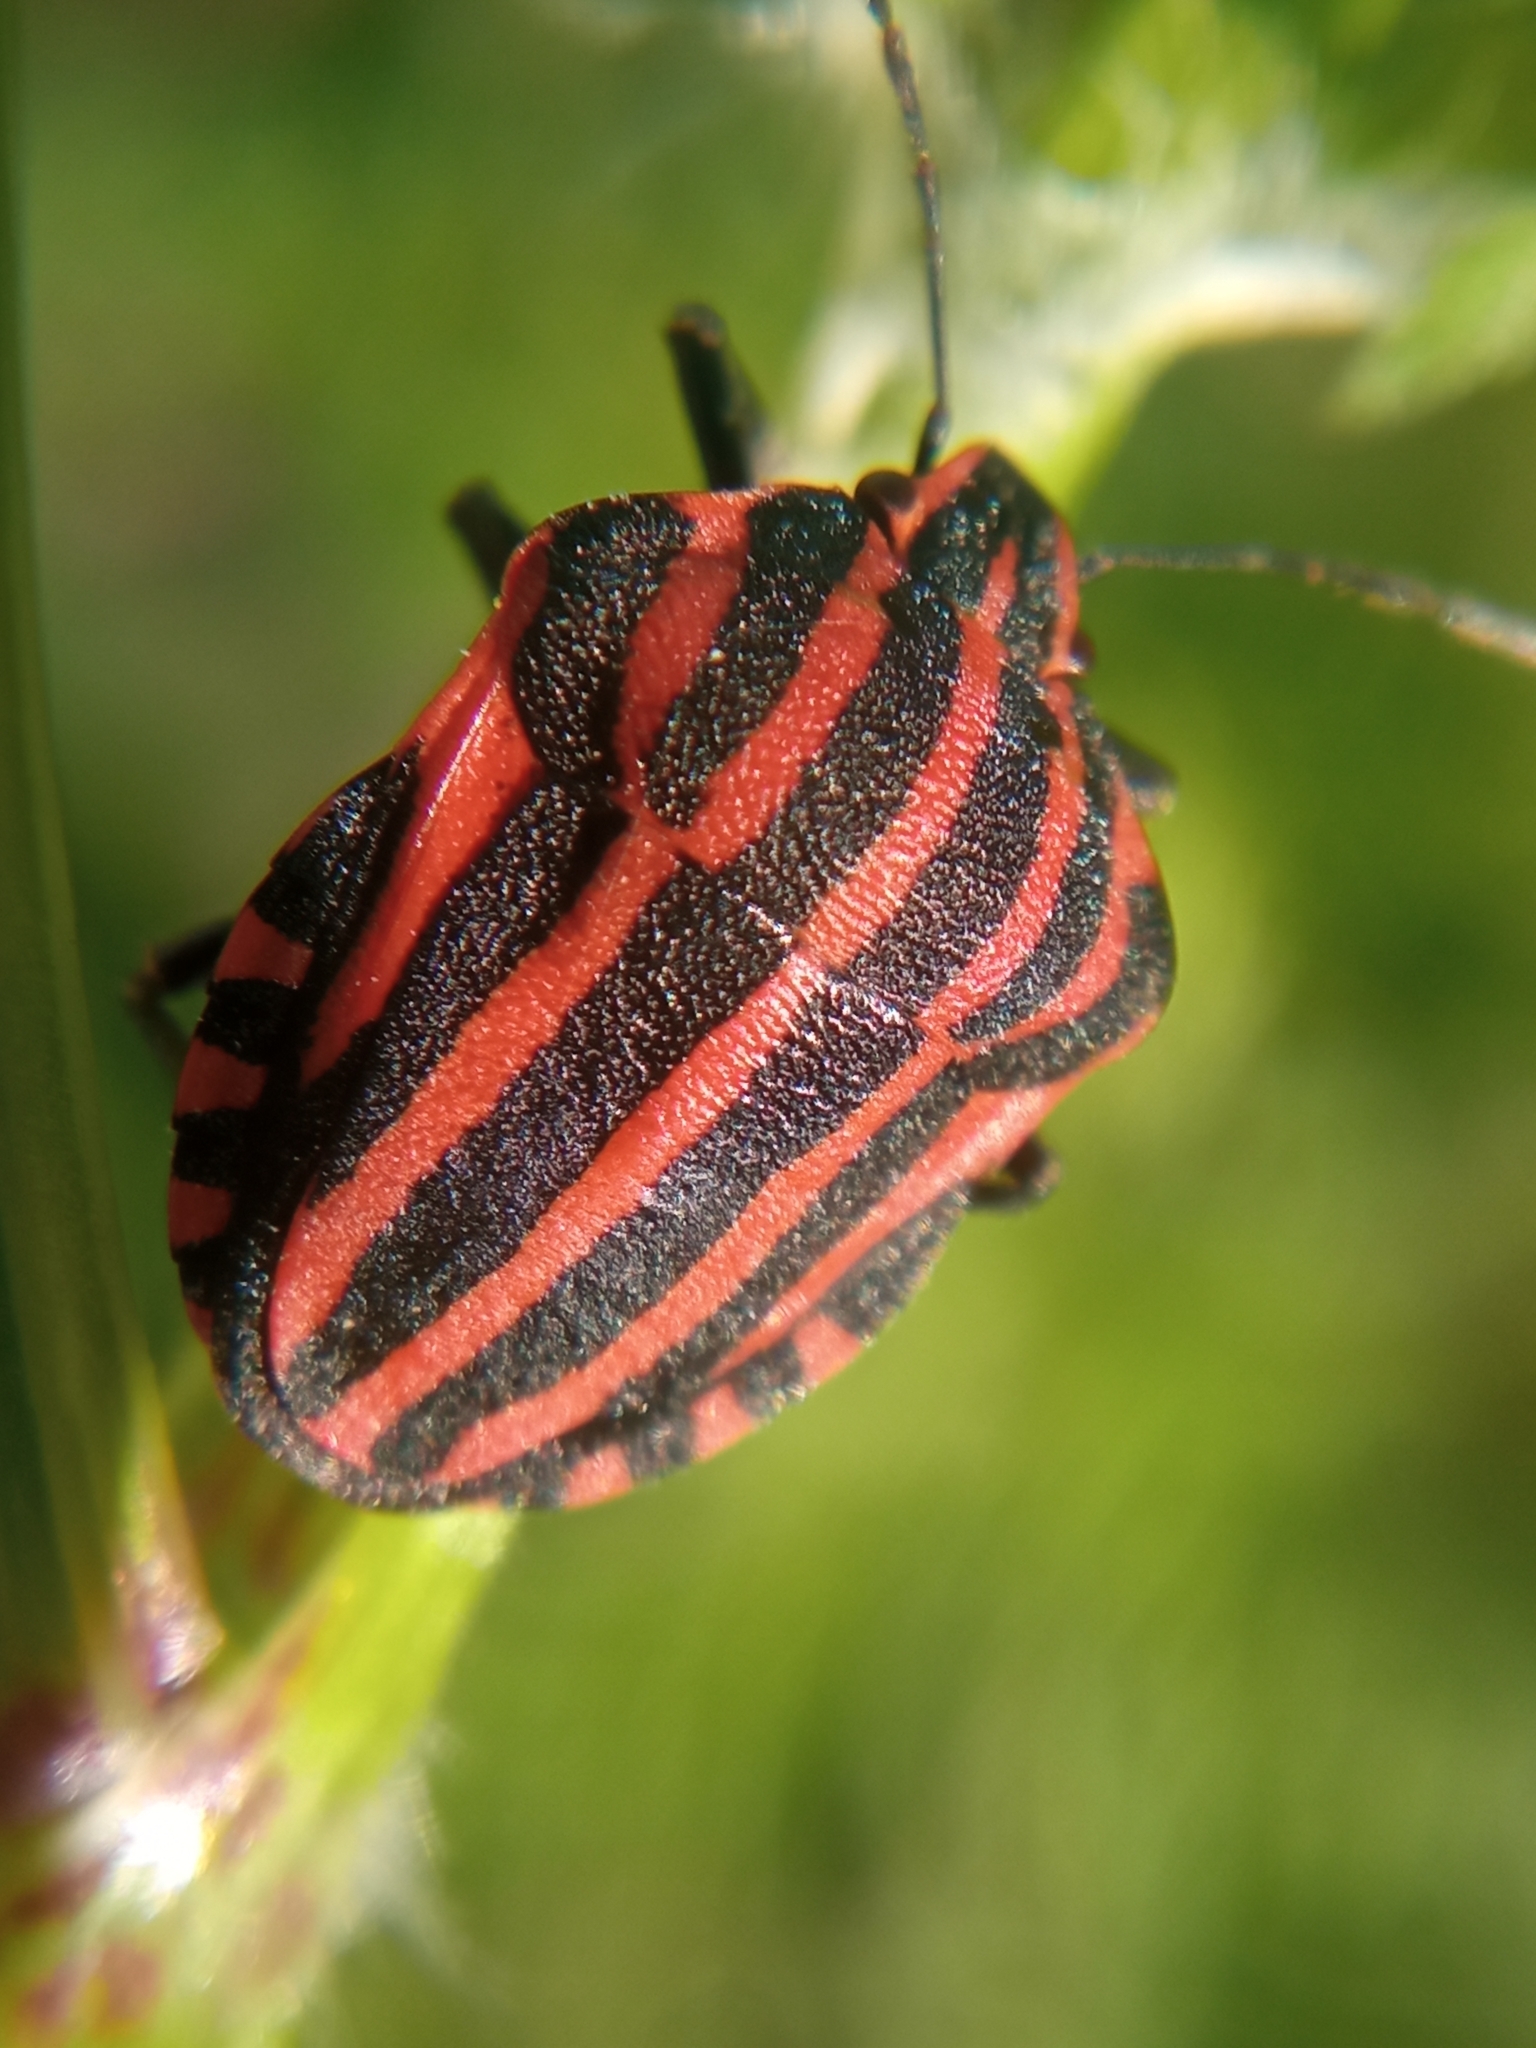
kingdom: Animalia
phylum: Arthropoda
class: Insecta
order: Hemiptera
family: Pentatomidae
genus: Graphosoma
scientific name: Graphosoma italicum
